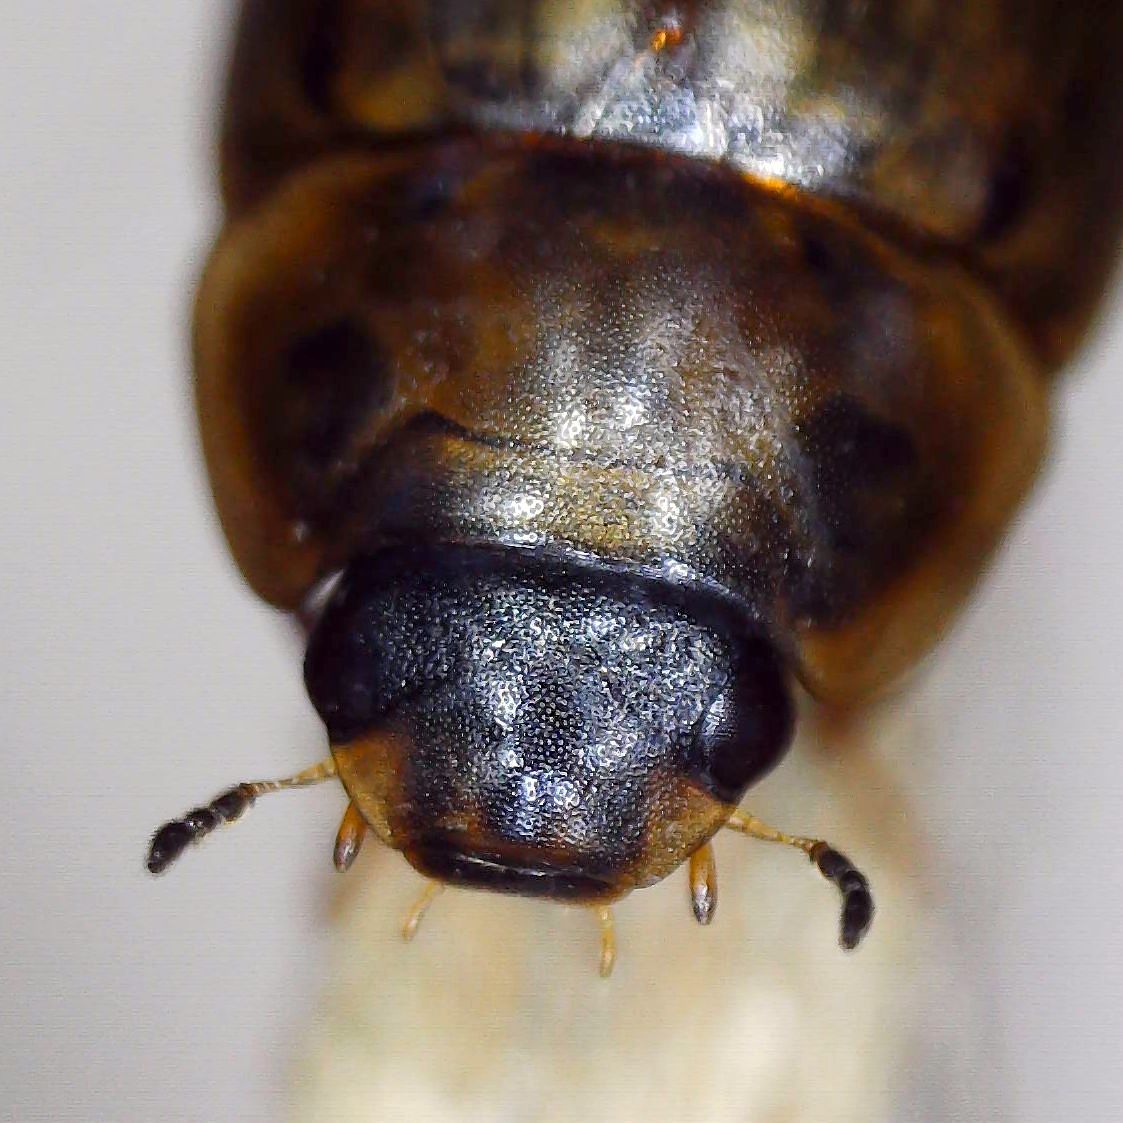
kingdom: Animalia
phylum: Arthropoda
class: Insecta
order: Coleoptera
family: Hydrophilidae
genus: Enochrus
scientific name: Enochrus testaceus
